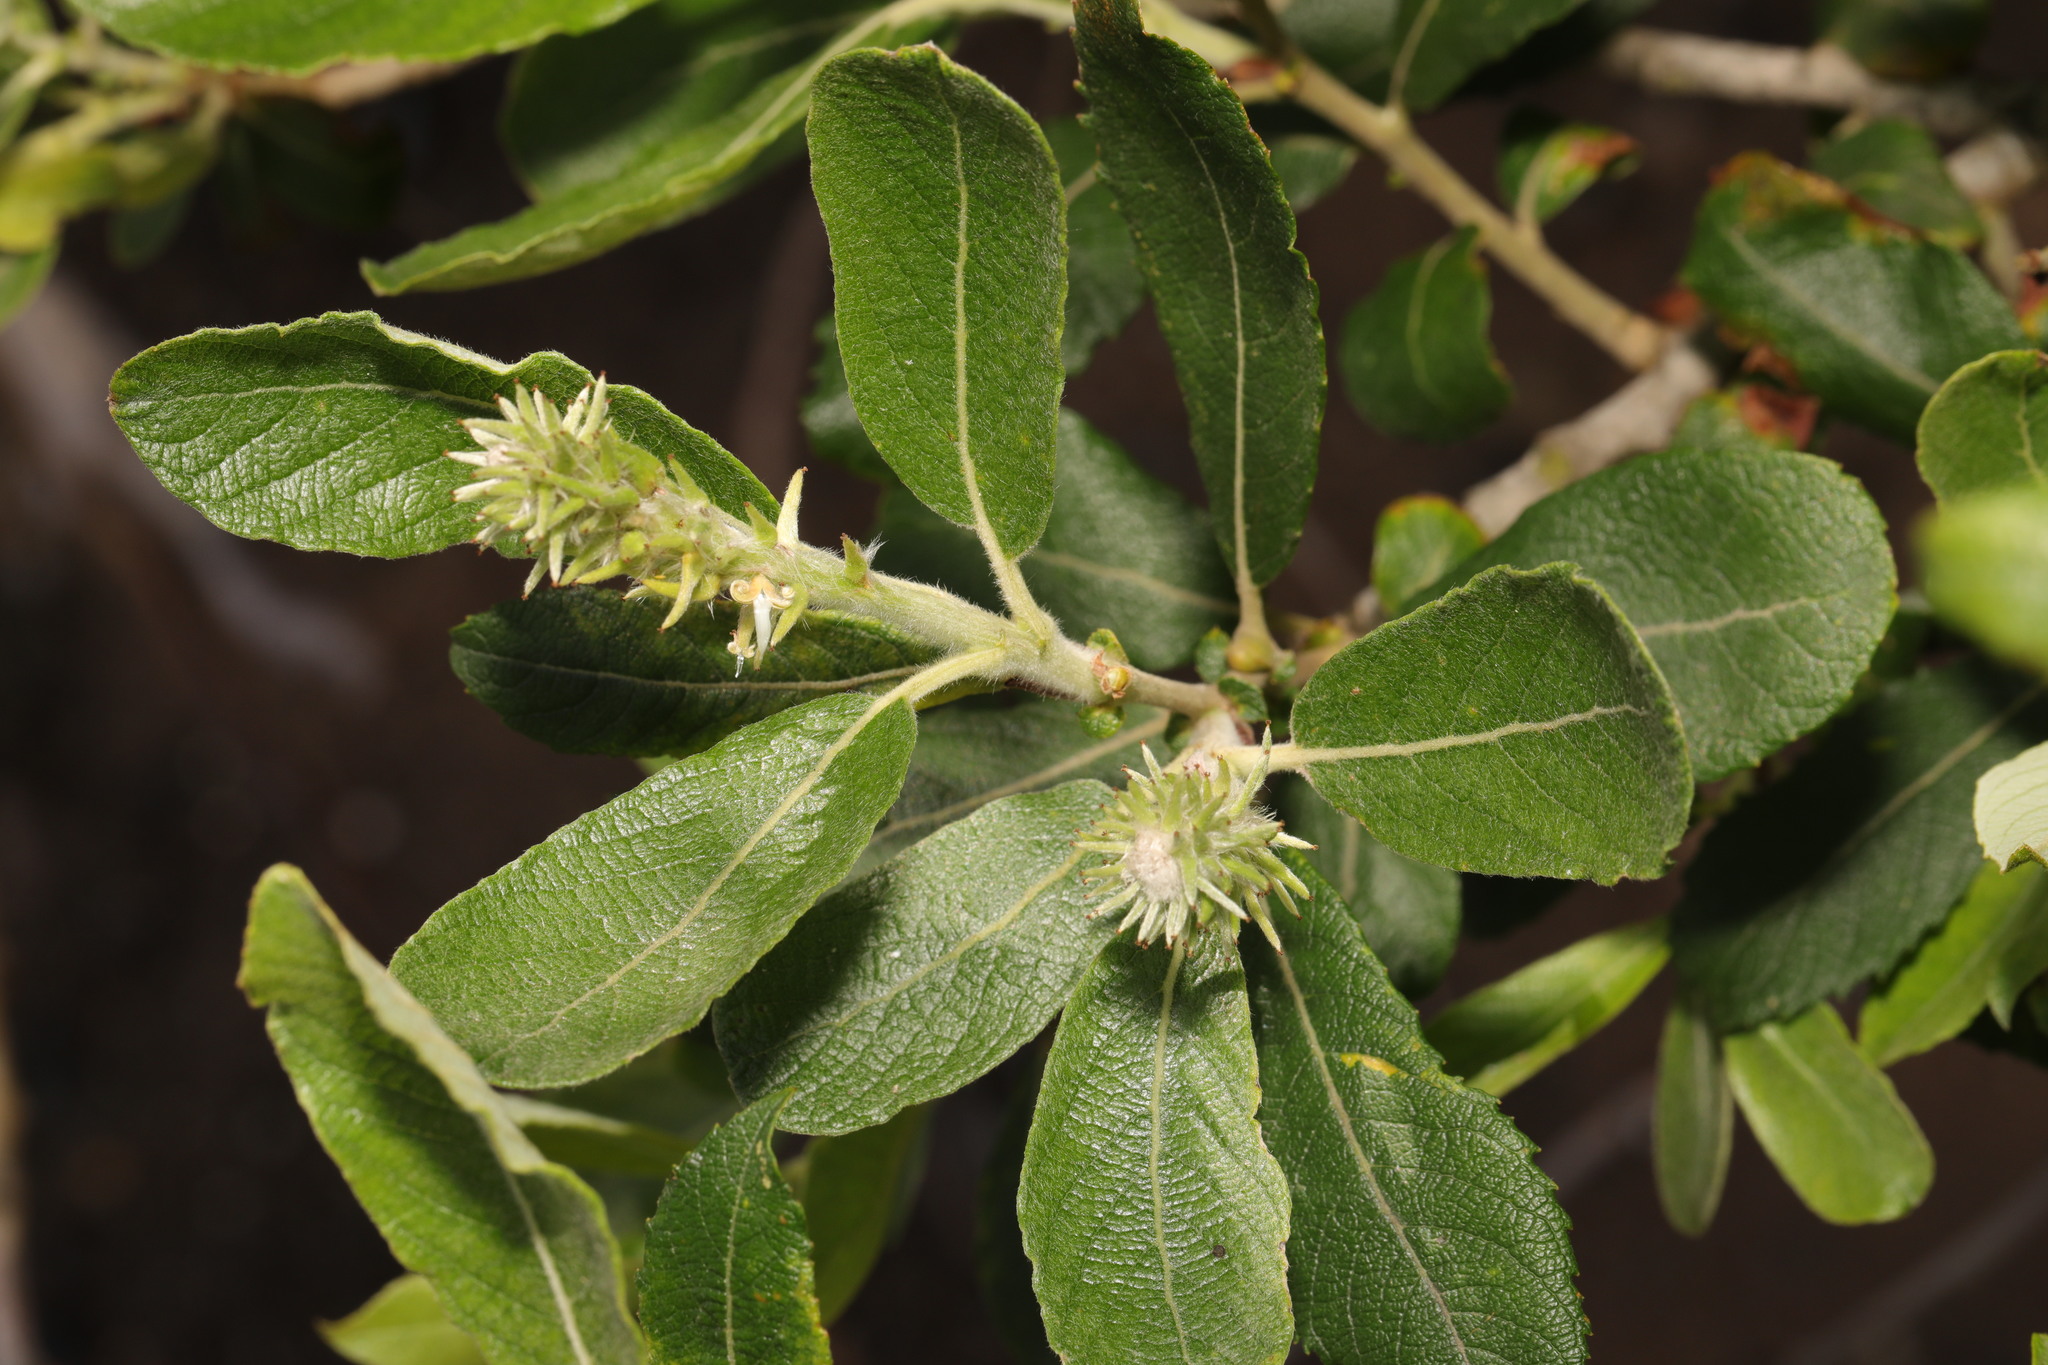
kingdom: Plantae
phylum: Tracheophyta
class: Magnoliopsida
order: Malpighiales
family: Salicaceae
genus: Salix
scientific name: Salix cinerea
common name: Common sallow
